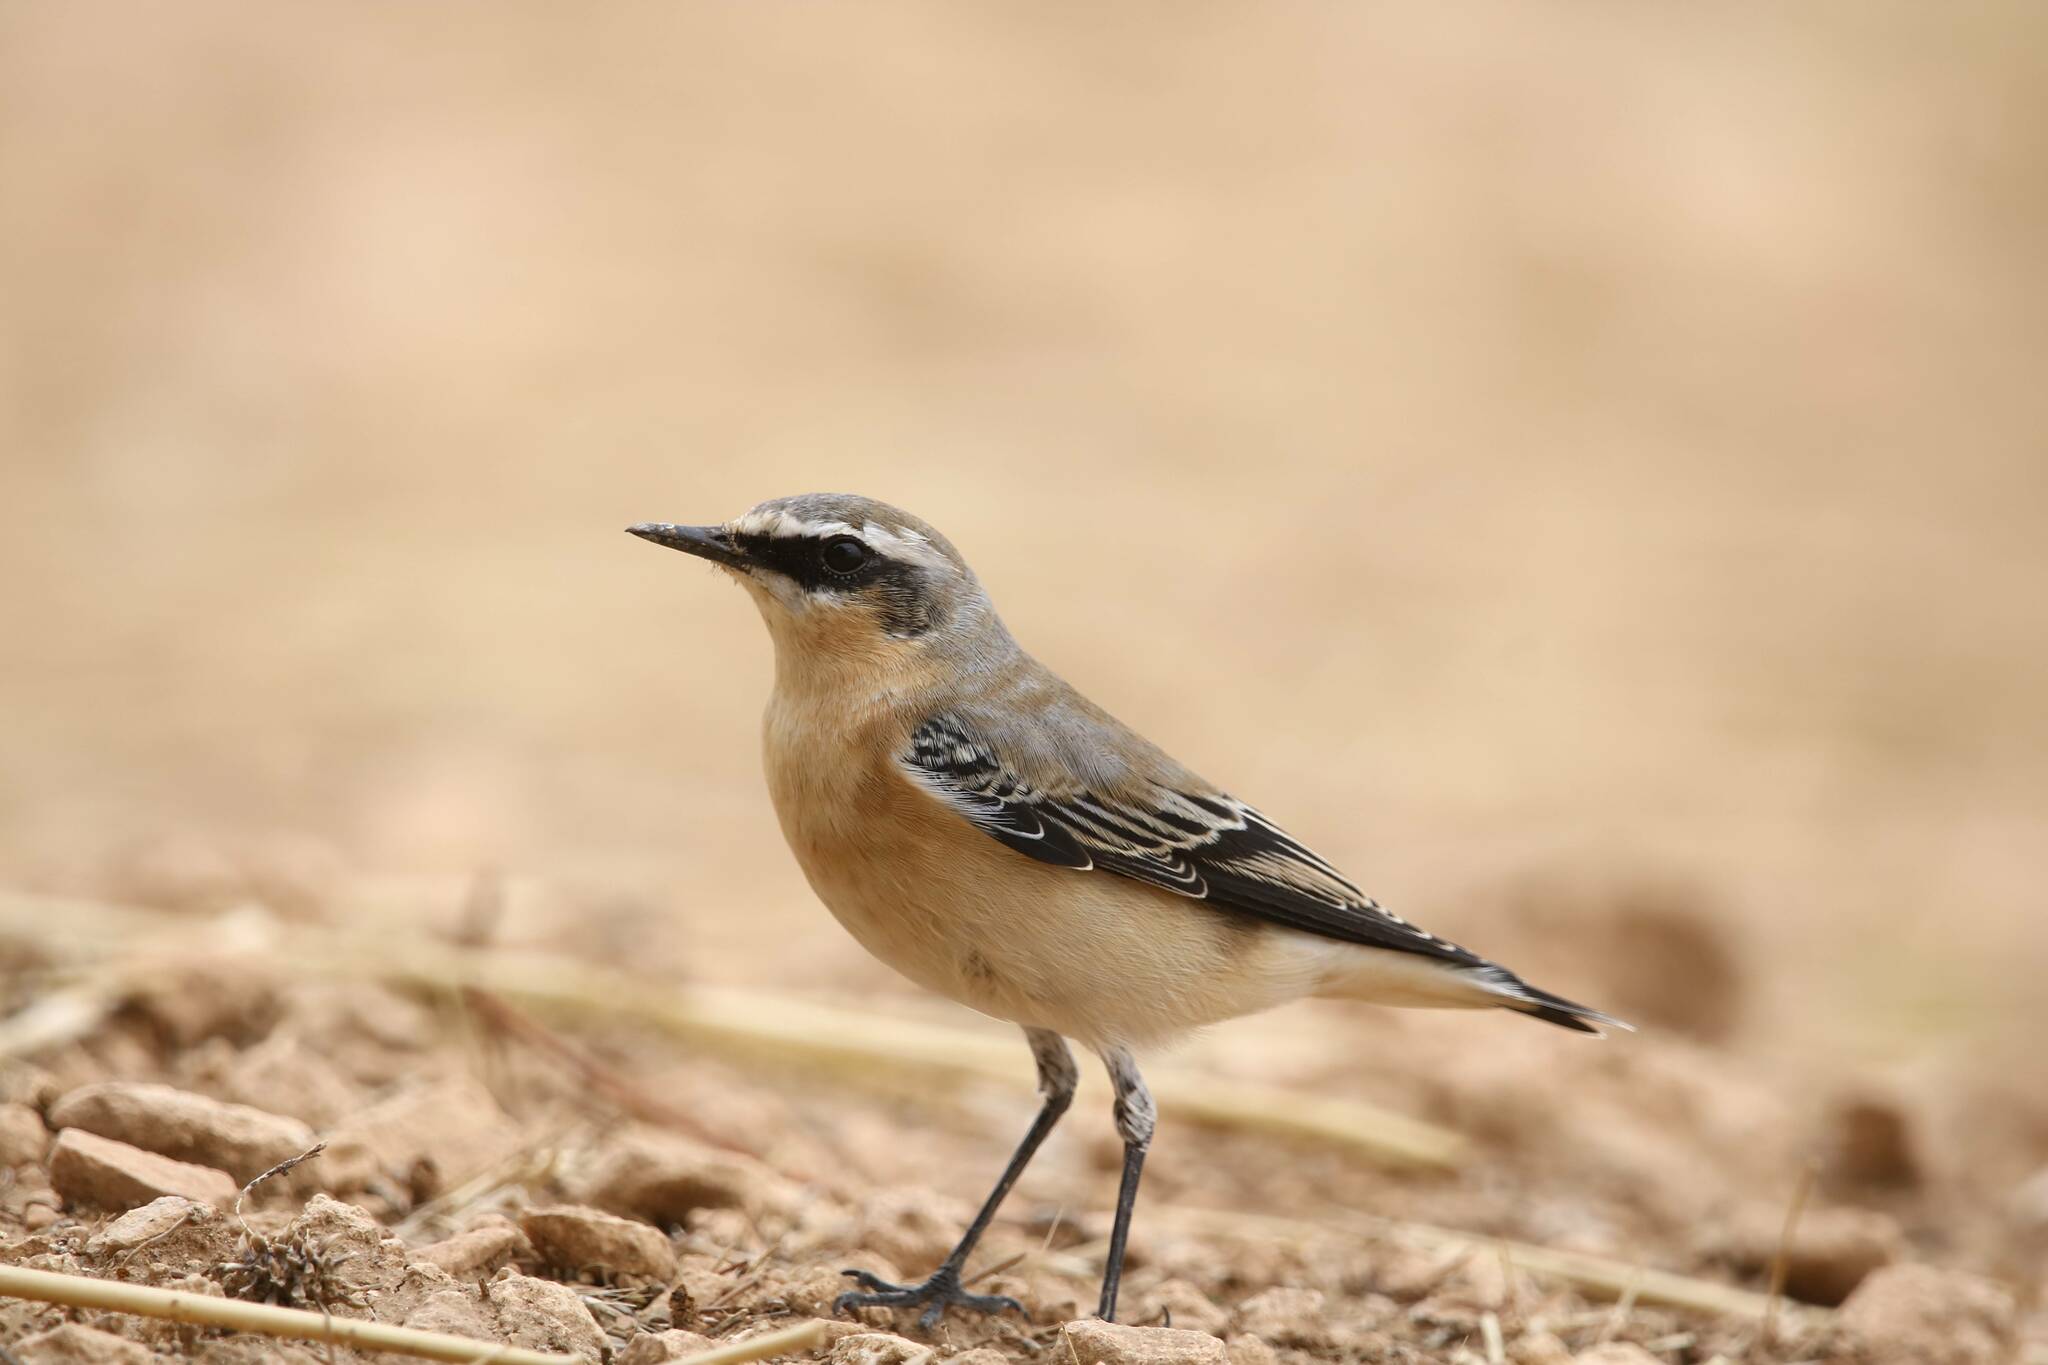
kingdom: Animalia
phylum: Chordata
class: Aves
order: Passeriformes
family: Muscicapidae
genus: Oenanthe
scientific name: Oenanthe oenanthe
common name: Northern wheatear
